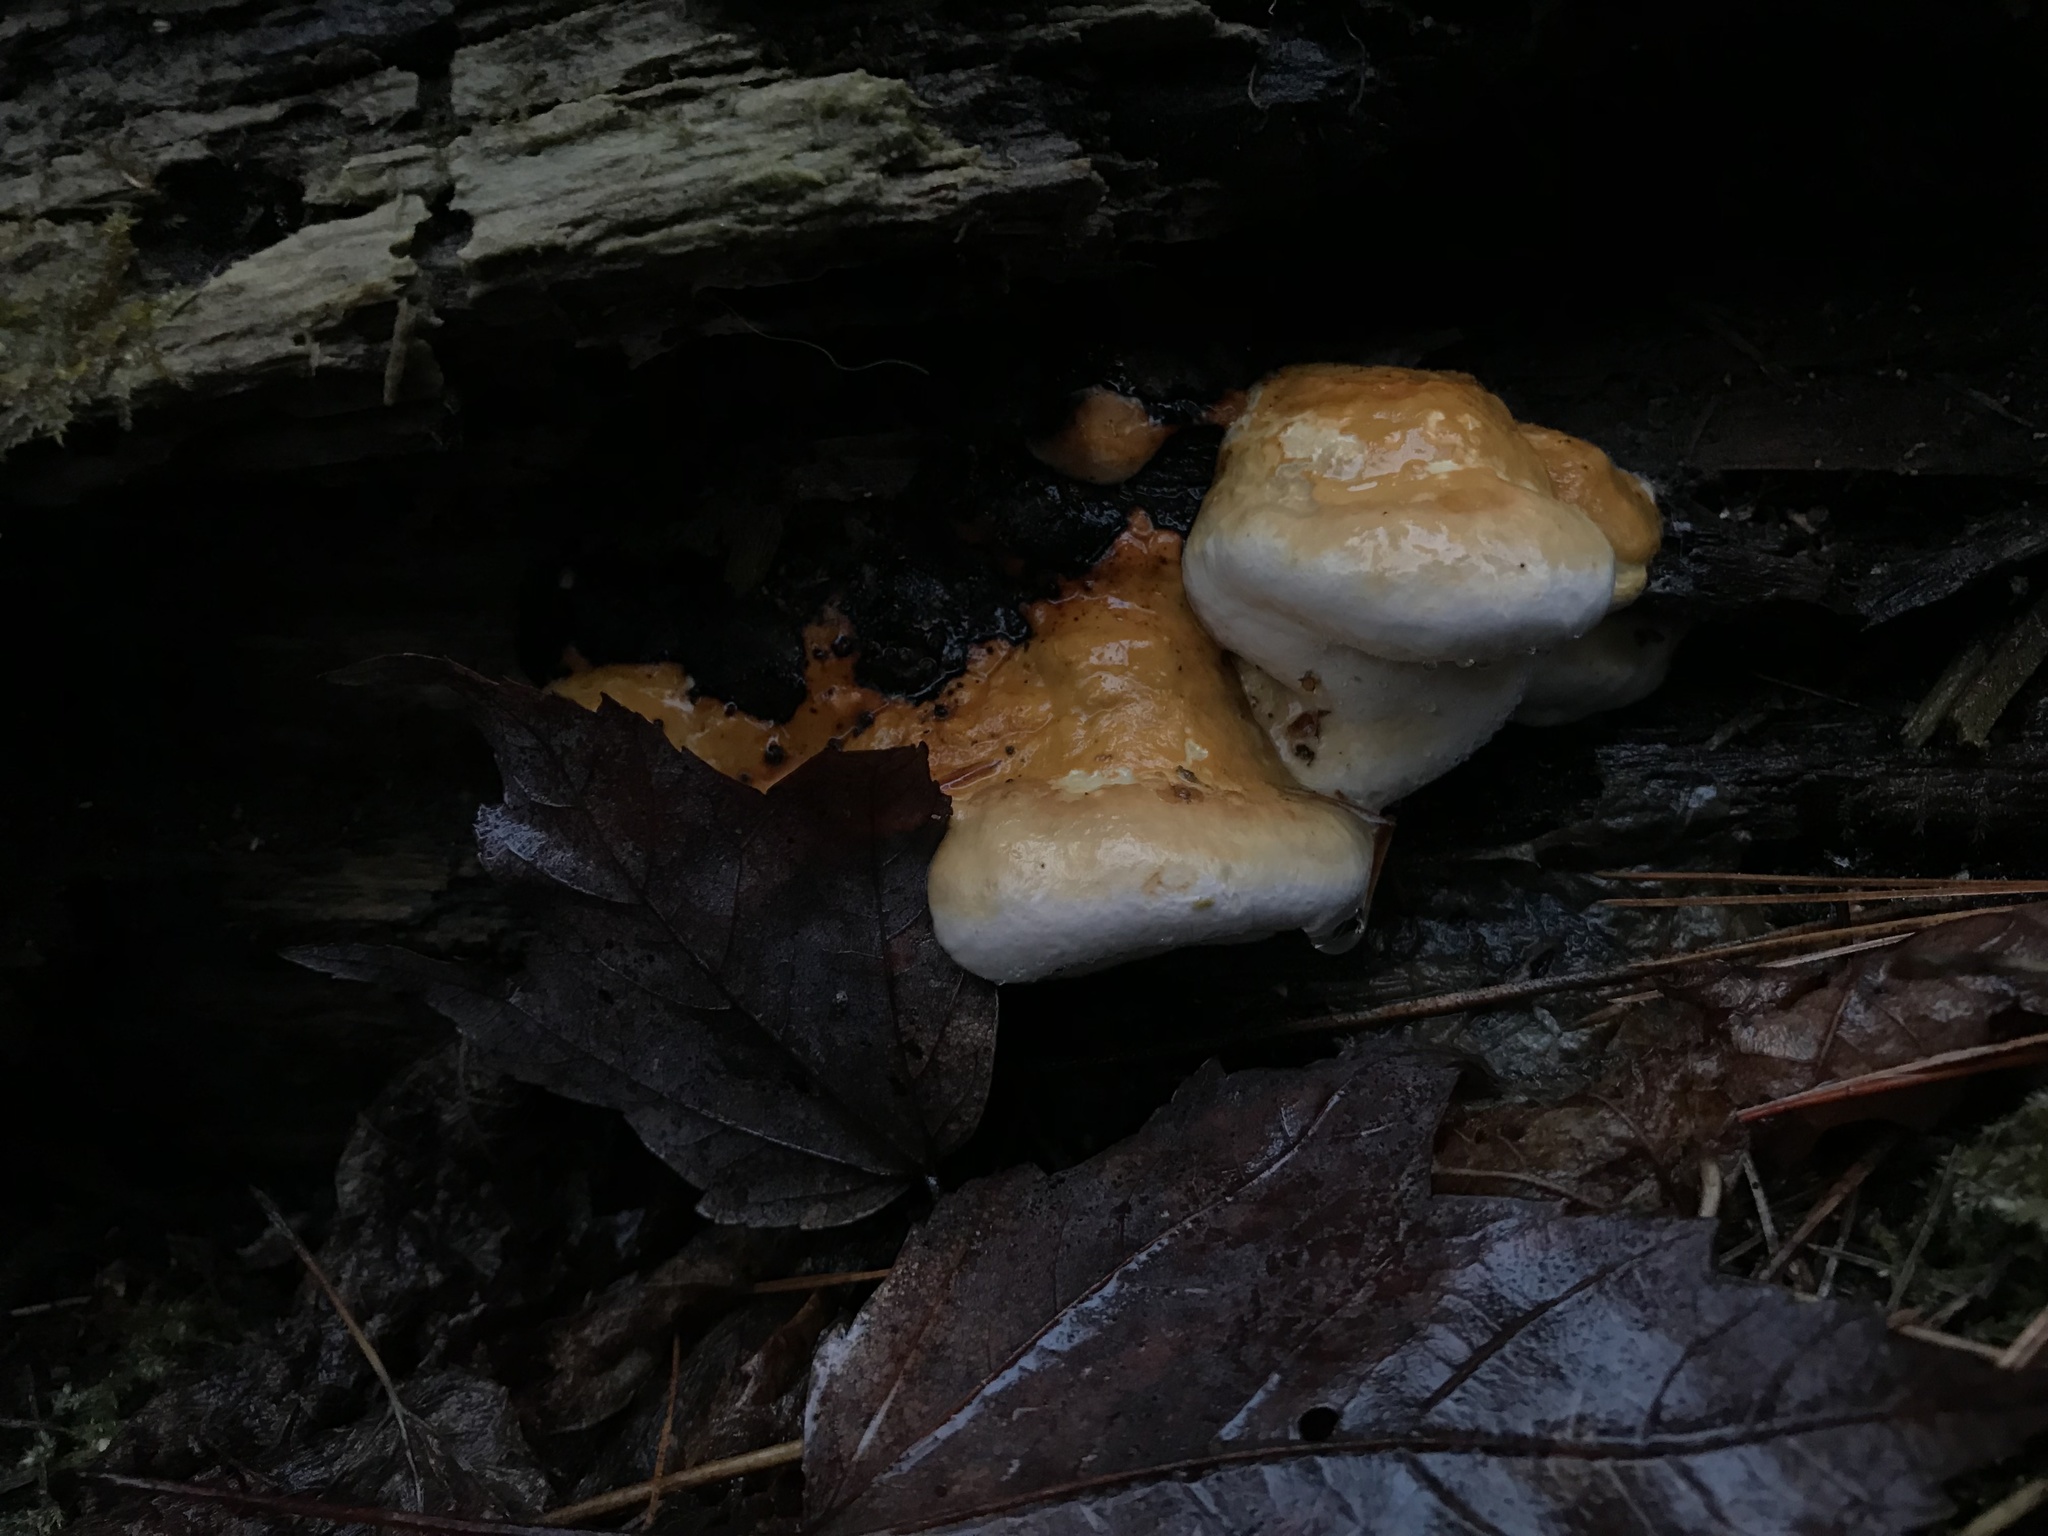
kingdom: Fungi
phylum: Basidiomycota
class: Agaricomycetes
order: Polyporales
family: Fomitopsidaceae
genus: Fomitopsis
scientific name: Fomitopsis ochracea
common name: American brown fomitopsis
